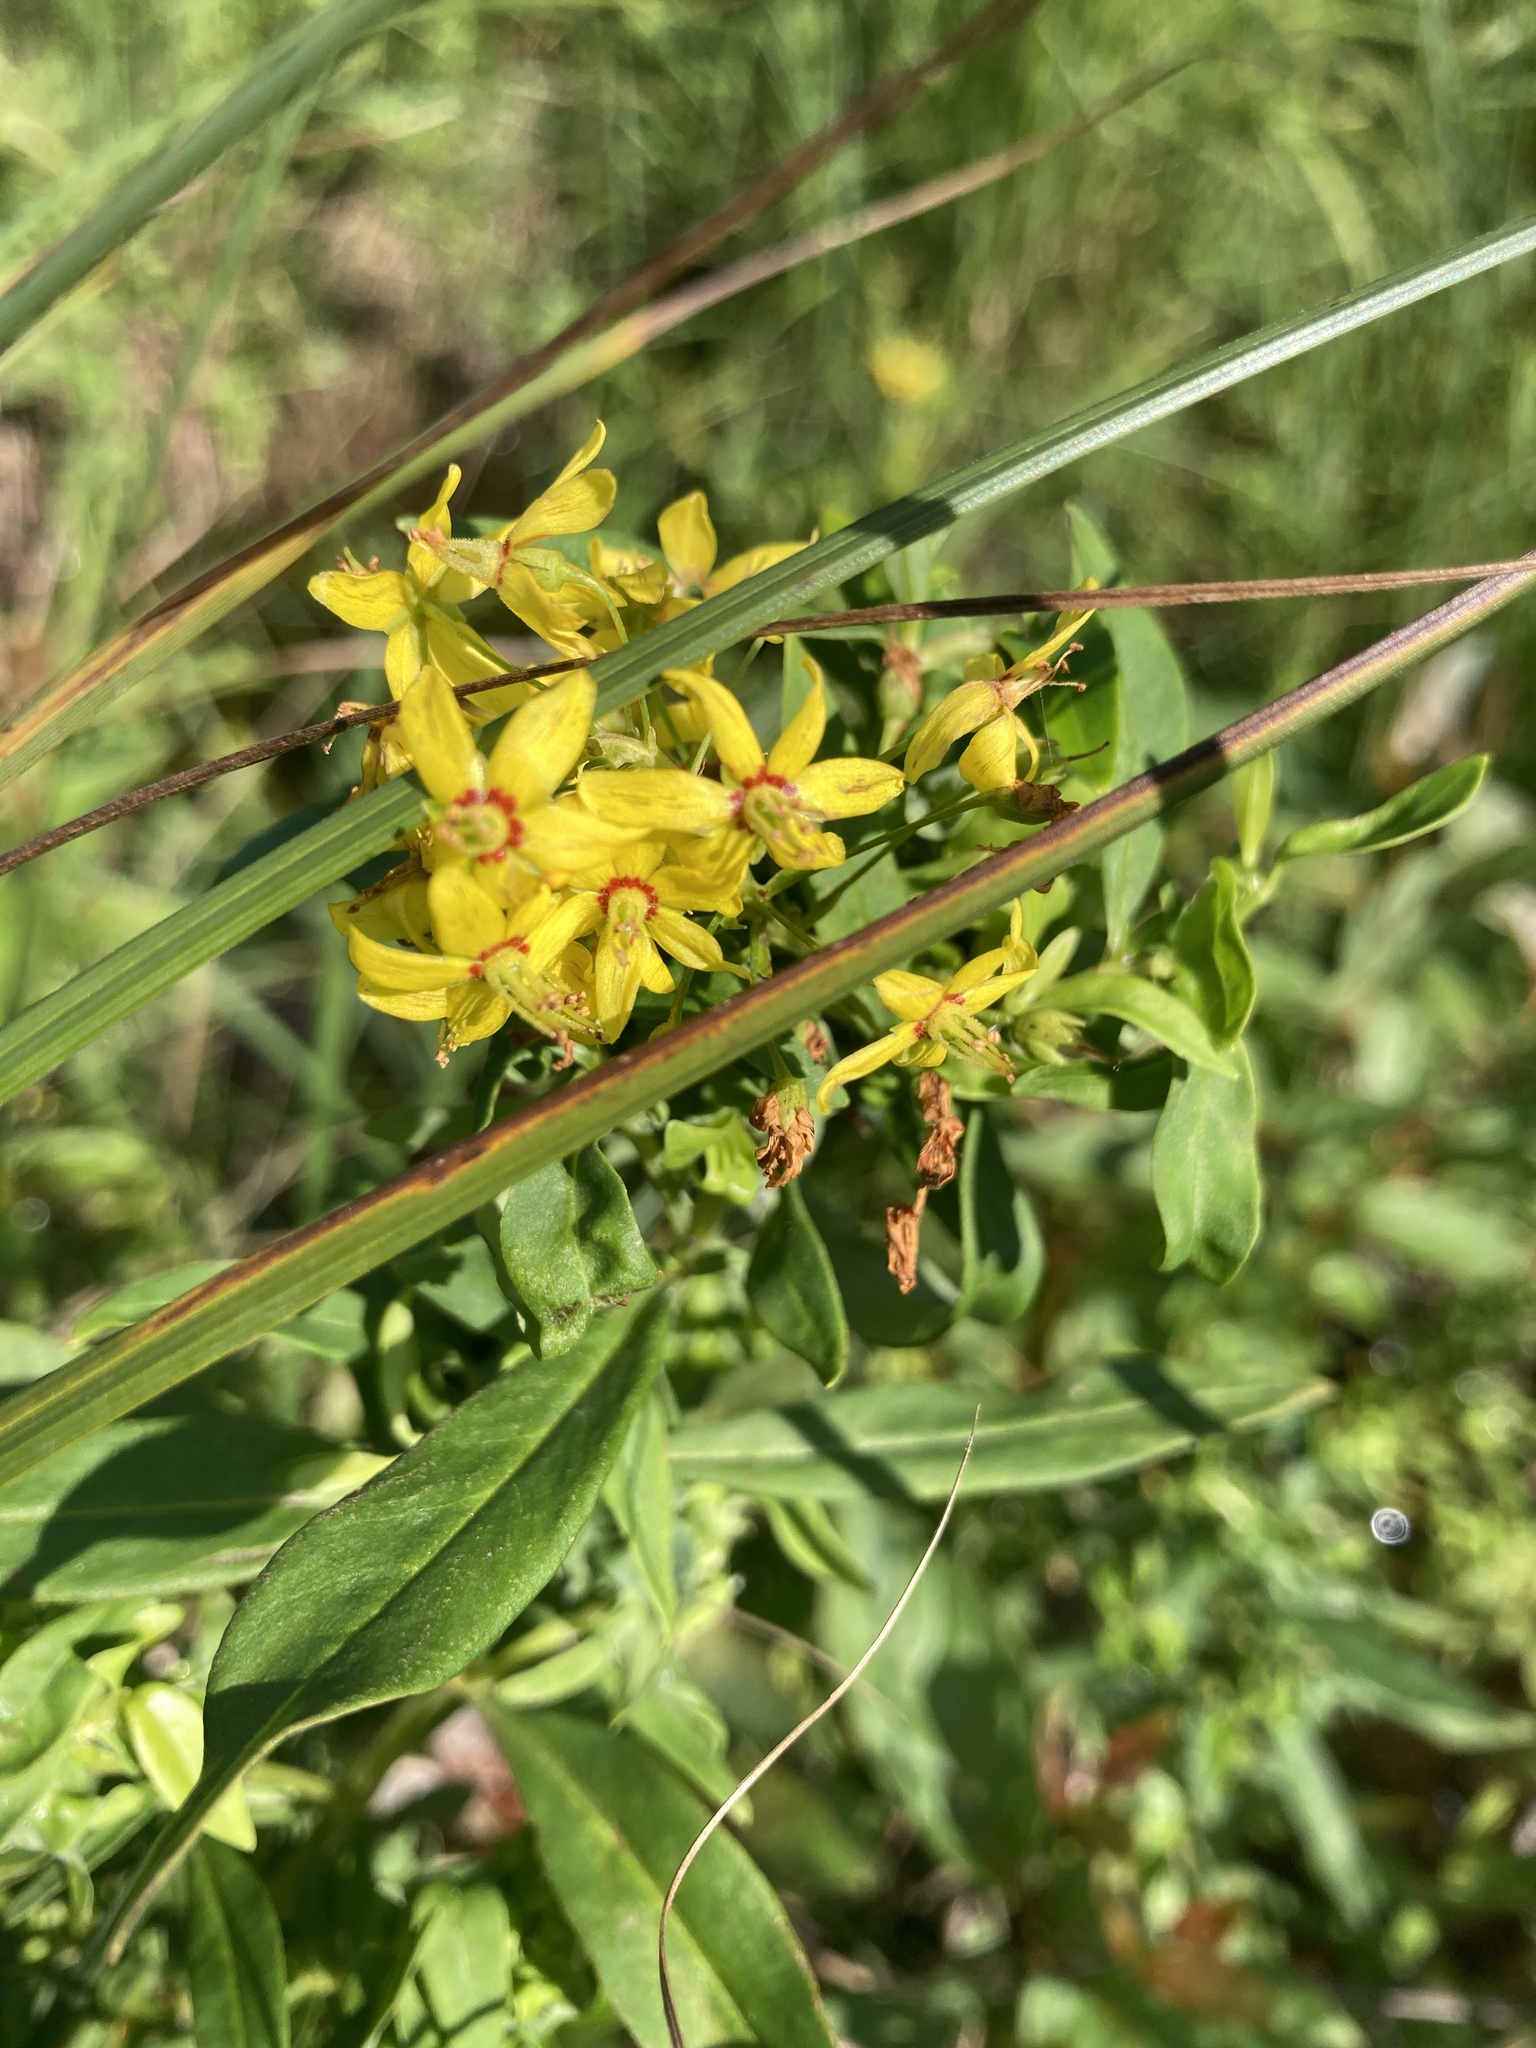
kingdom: Plantae
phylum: Tracheophyta
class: Magnoliopsida
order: Ericales
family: Primulaceae
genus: Lysimachia
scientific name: Lysimachia terrestris
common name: Lake loosestrife
